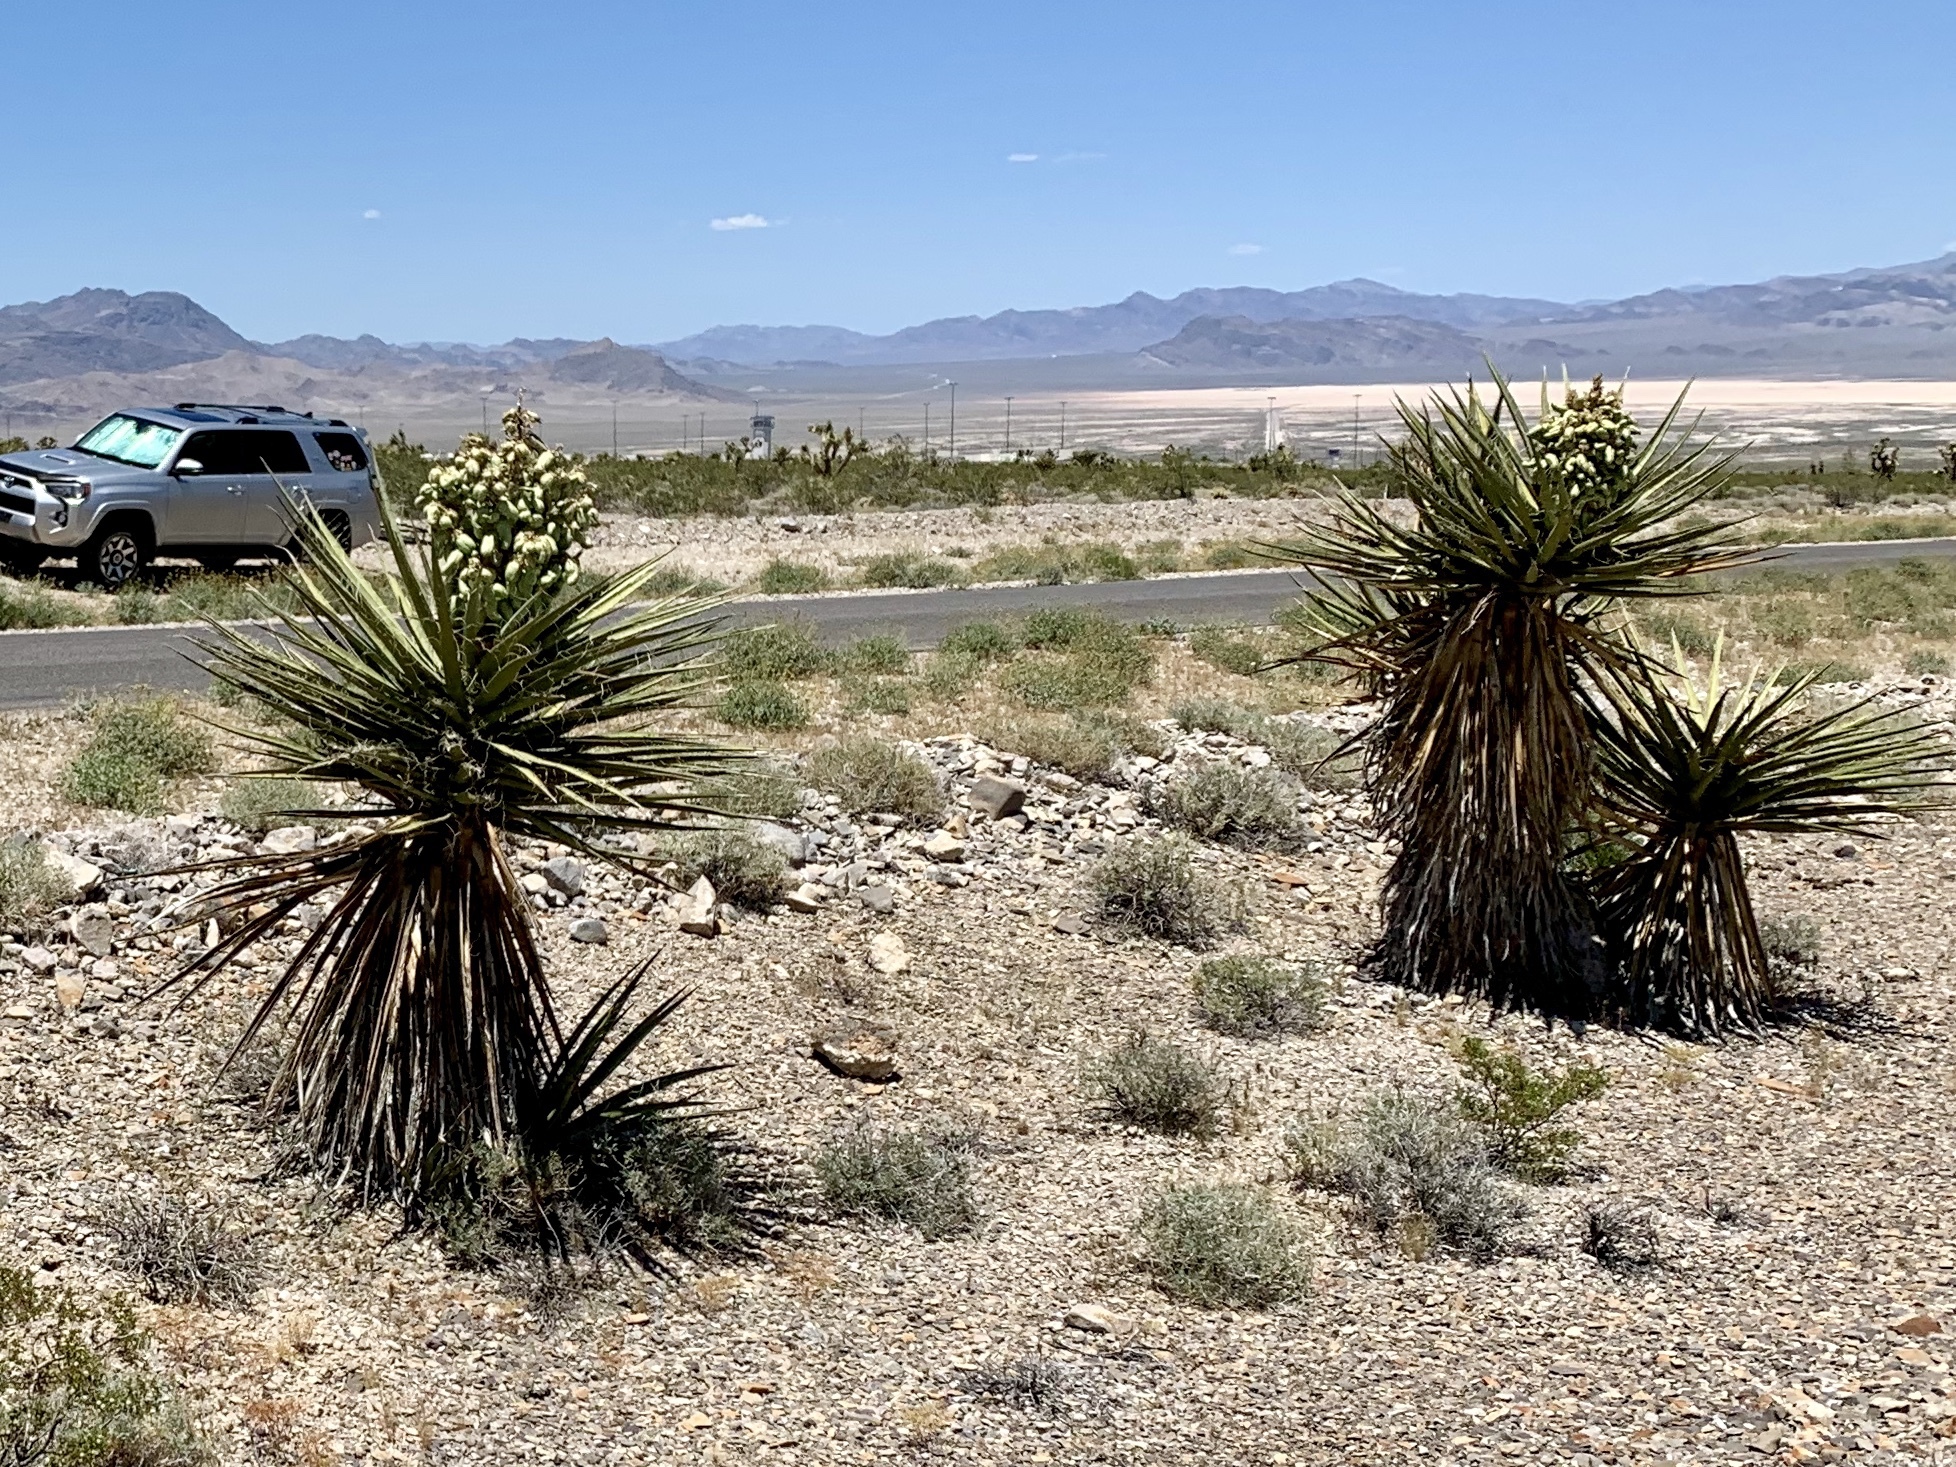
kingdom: Plantae
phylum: Tracheophyta
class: Liliopsida
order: Asparagales
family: Asparagaceae
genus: Yucca
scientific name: Yucca schidigera
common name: Mojave yucca
